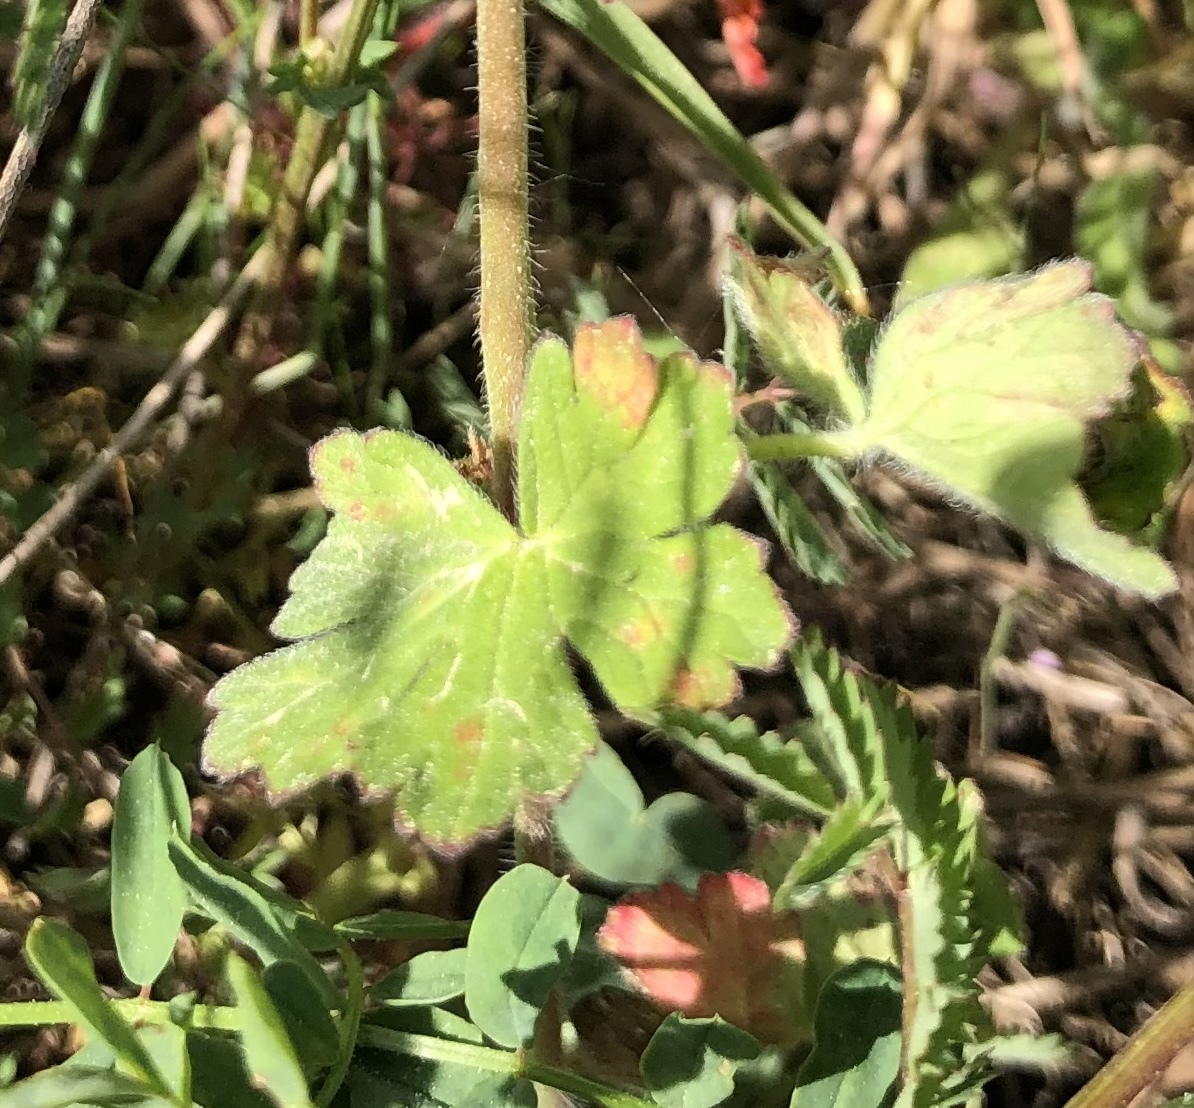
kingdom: Plantae
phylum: Tracheophyta
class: Magnoliopsida
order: Geraniales
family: Geraniaceae
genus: Geranium
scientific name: Geranium pyrenaicum
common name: Hedgerow crane's-bill
